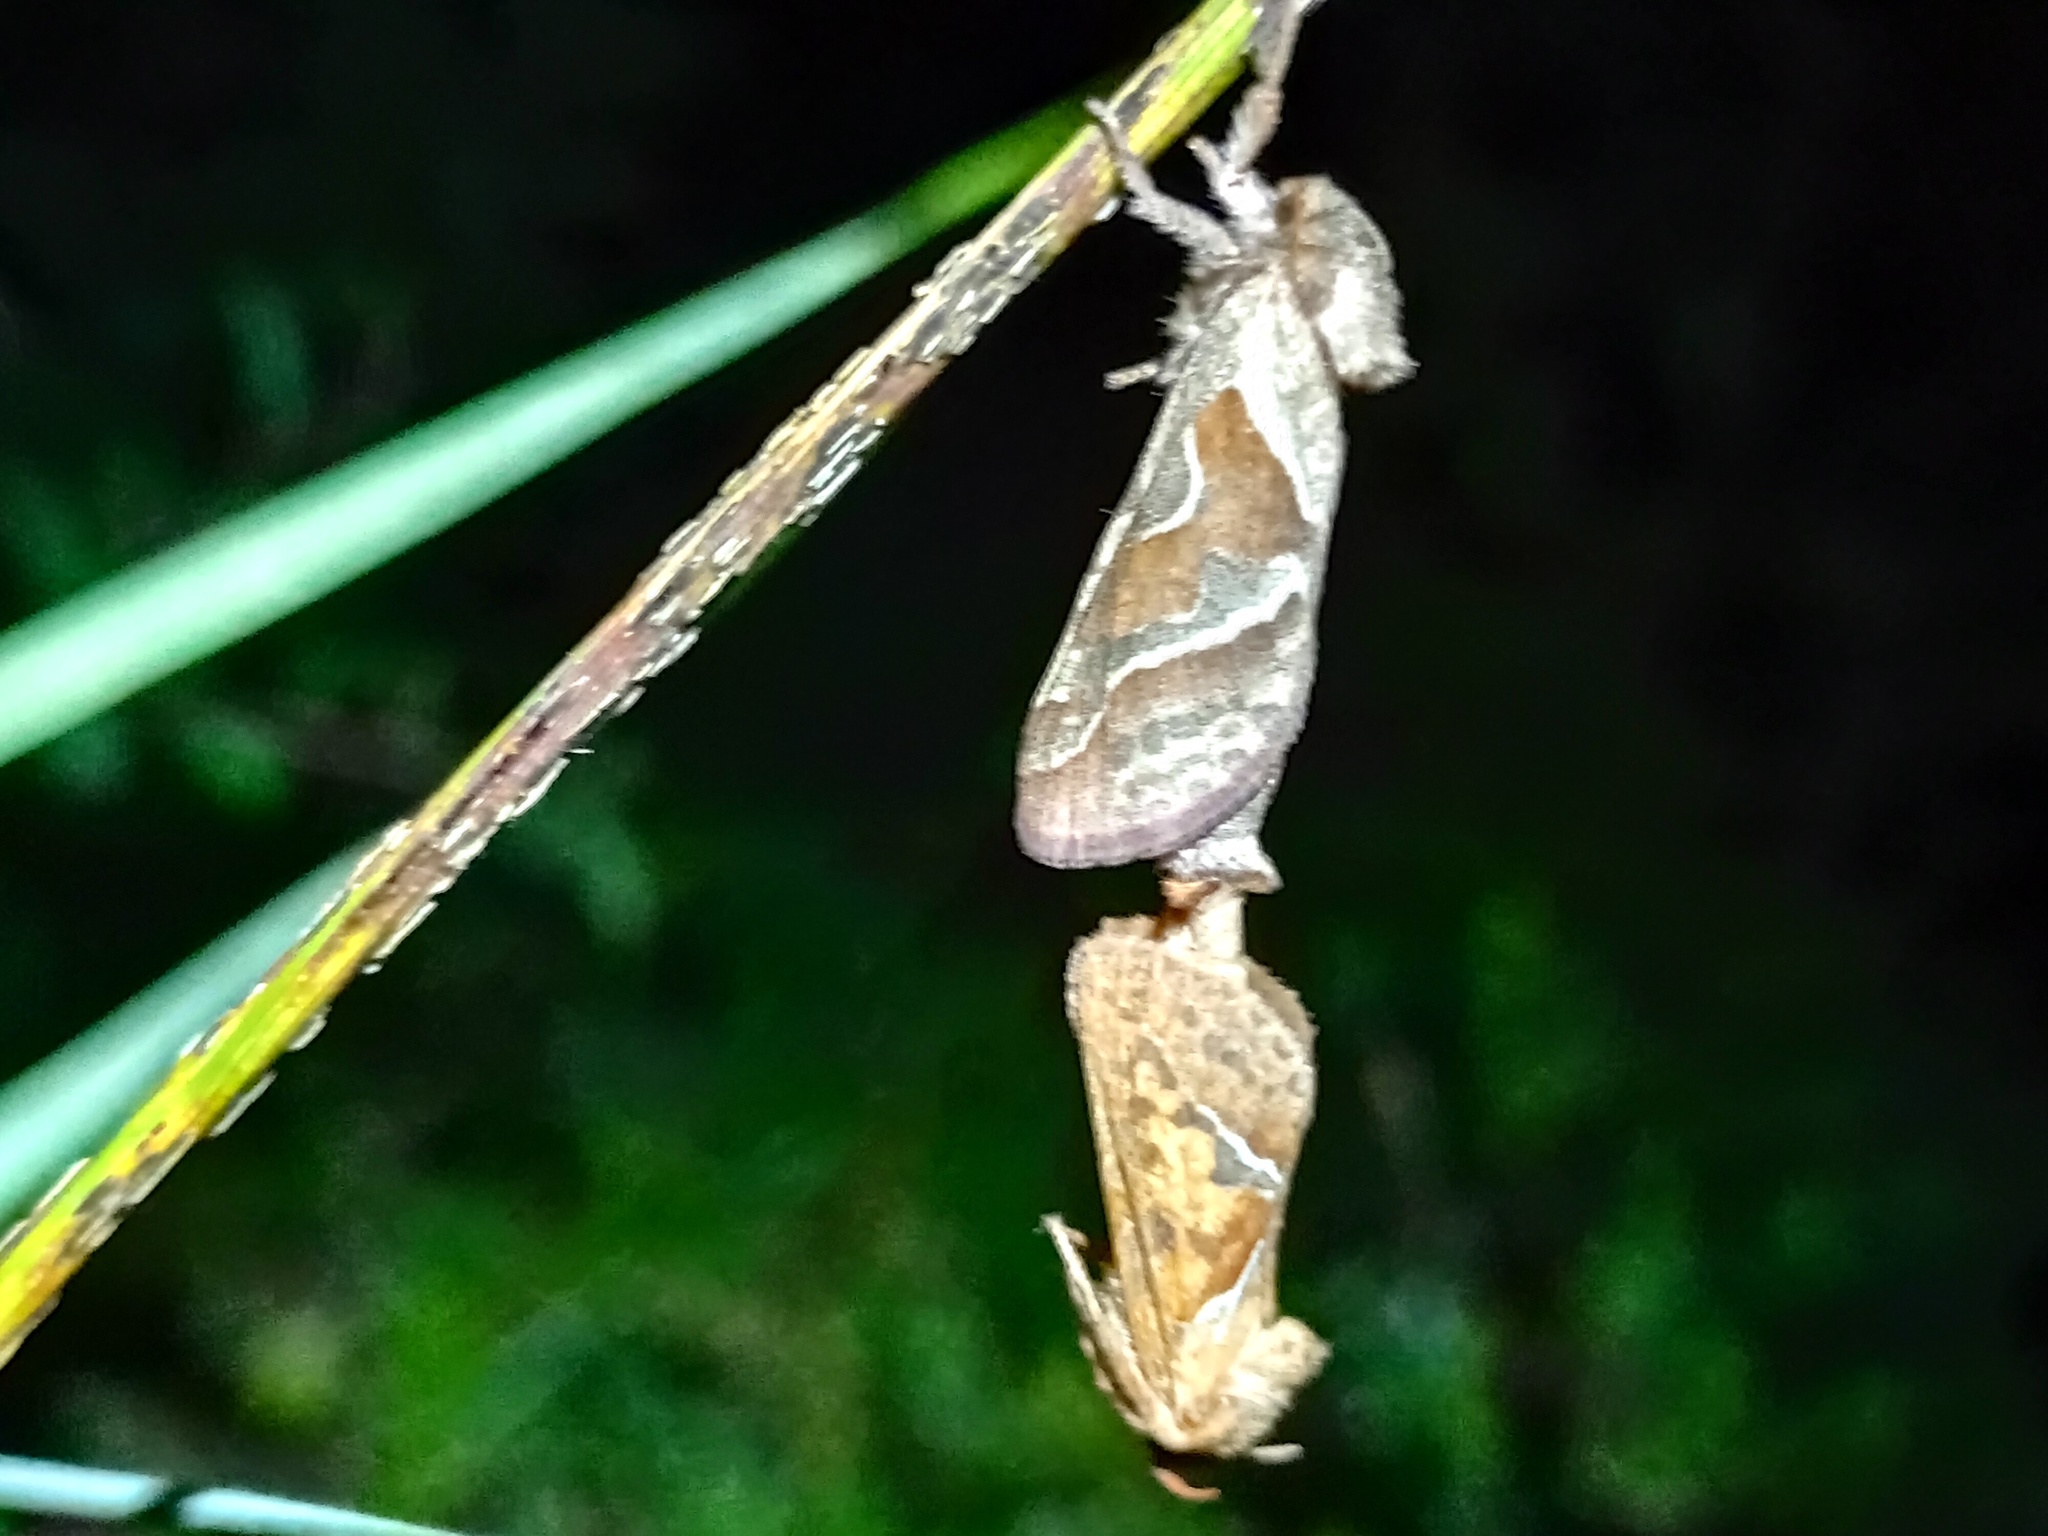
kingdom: Animalia
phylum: Arthropoda
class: Insecta
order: Lepidoptera
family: Hepialidae
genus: Triodia
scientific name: Triodia sylvina
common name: Orange swift
